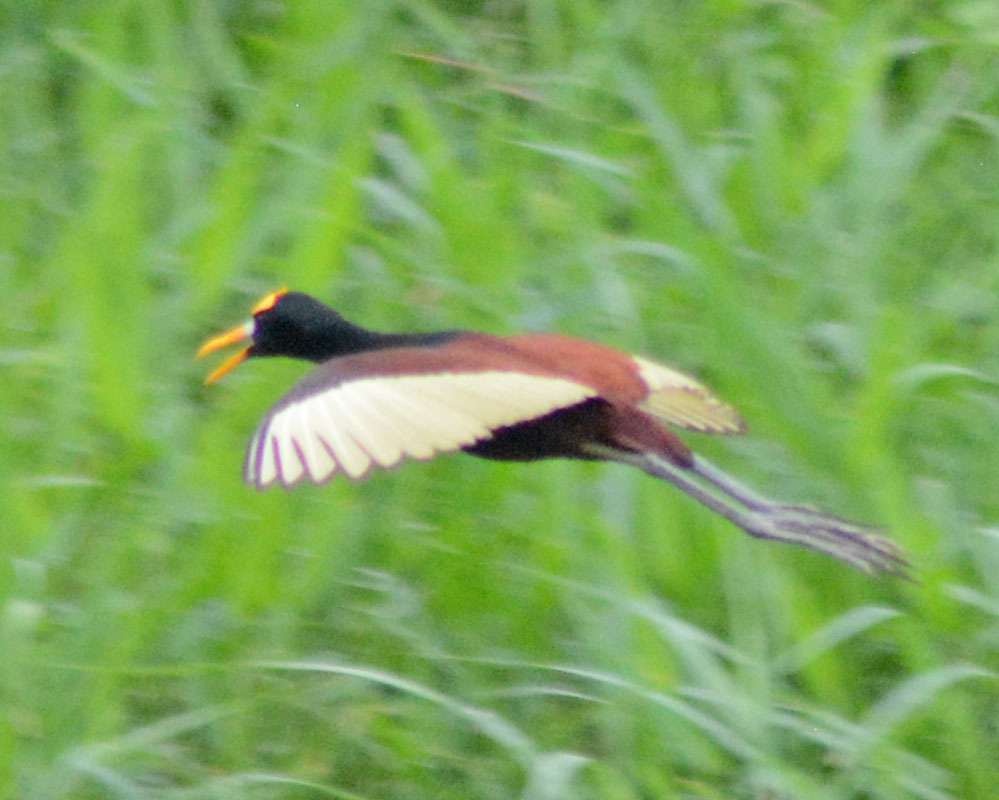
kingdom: Animalia
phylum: Chordata
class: Aves
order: Charadriiformes
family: Jacanidae
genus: Jacana
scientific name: Jacana spinosa
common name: Northern jacana
